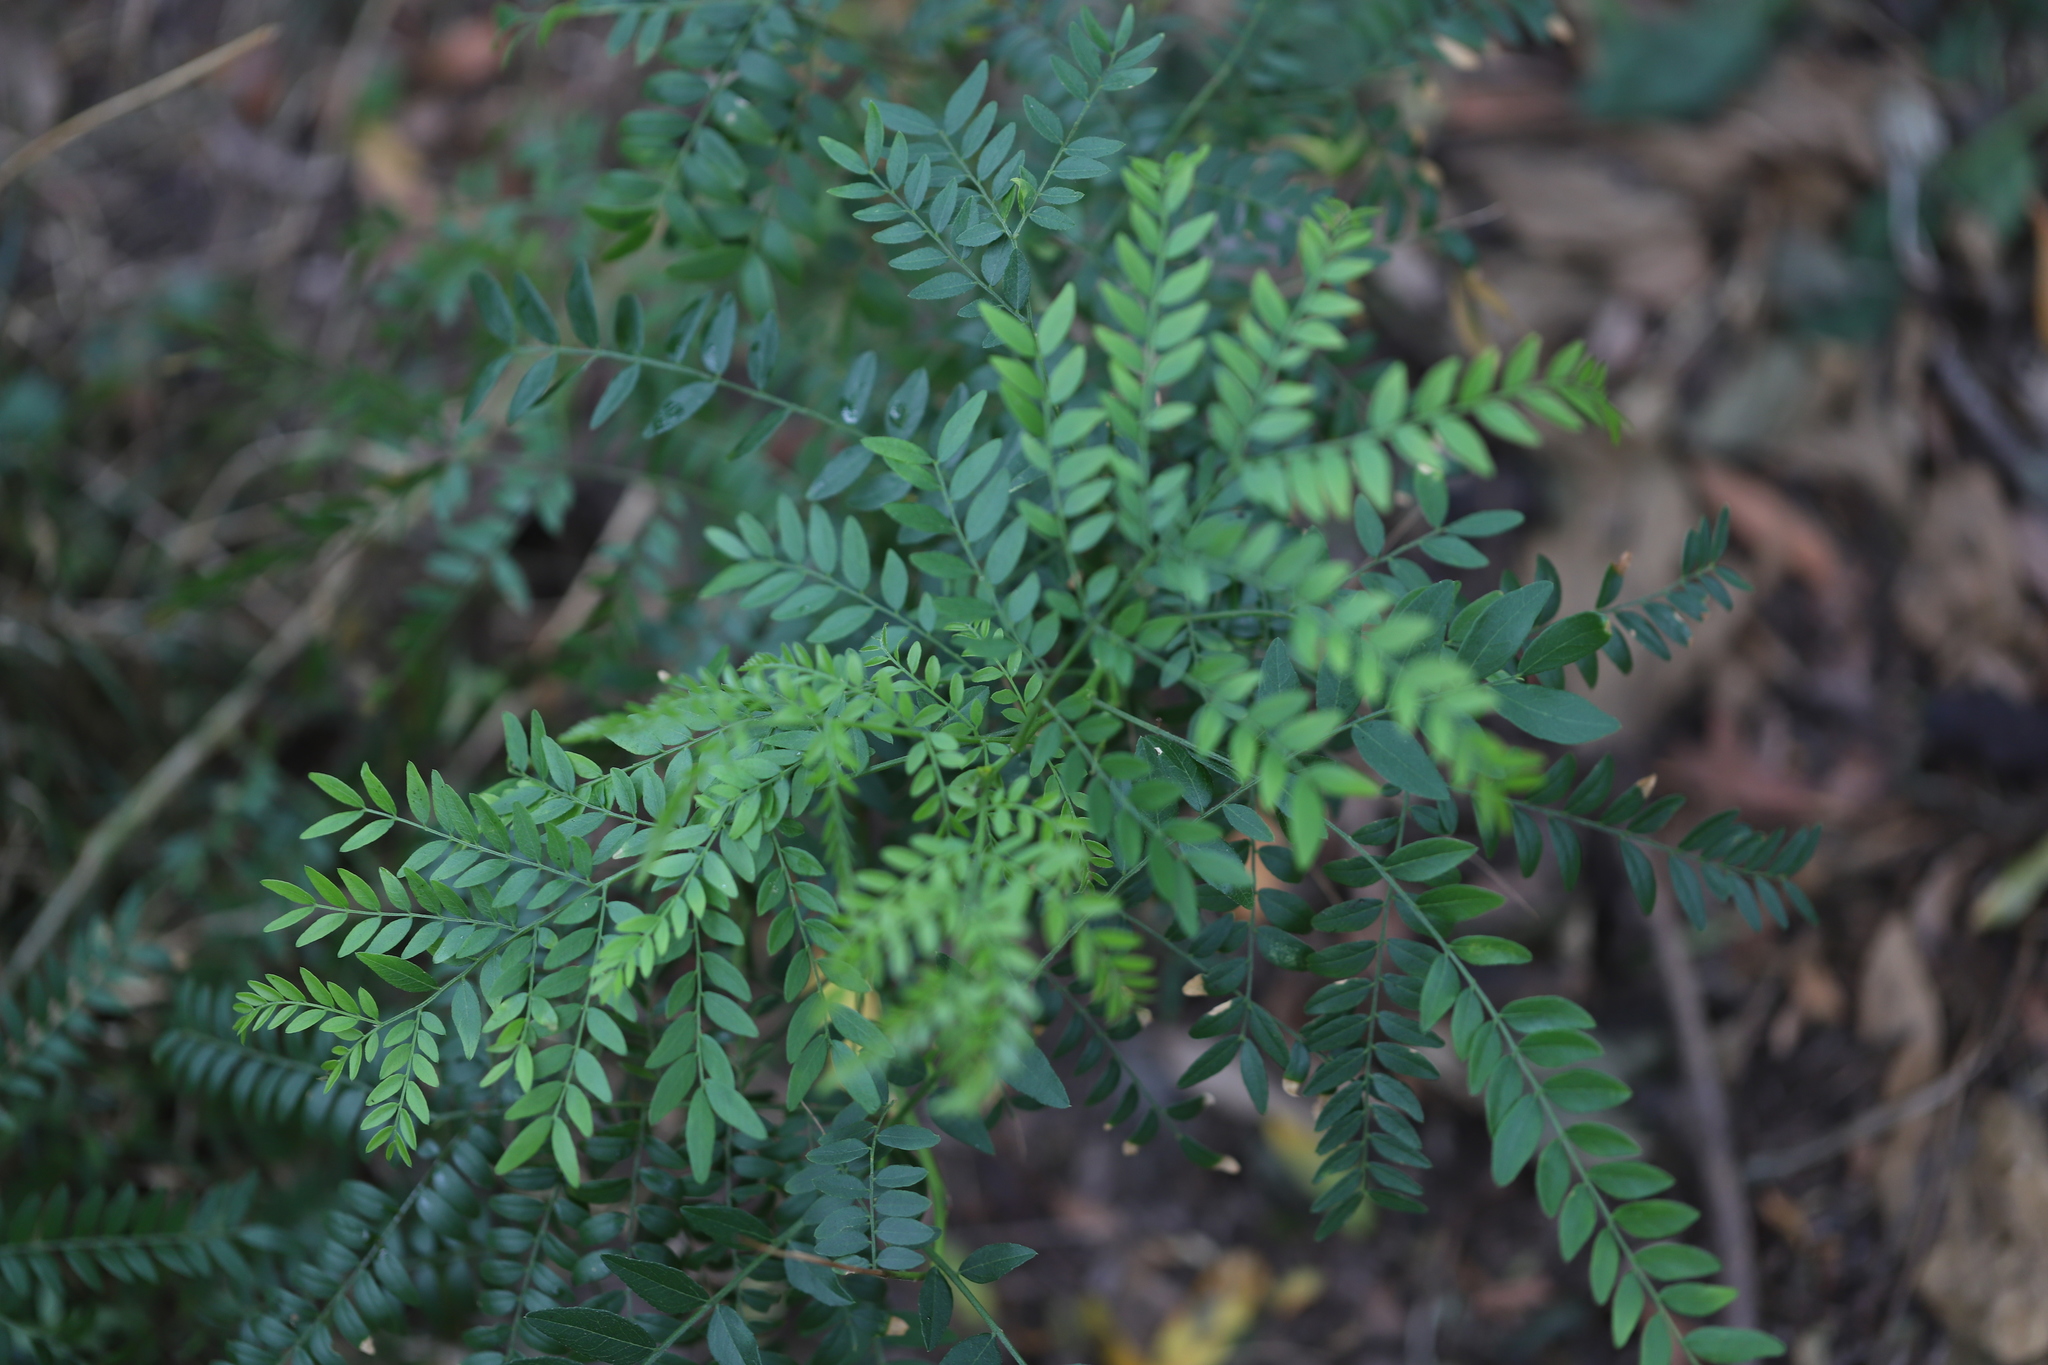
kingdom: Plantae
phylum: Tracheophyta
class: Magnoliopsida
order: Fabales
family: Fabaceae
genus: Gleditsia
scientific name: Gleditsia triacanthos
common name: Common honeylocust
